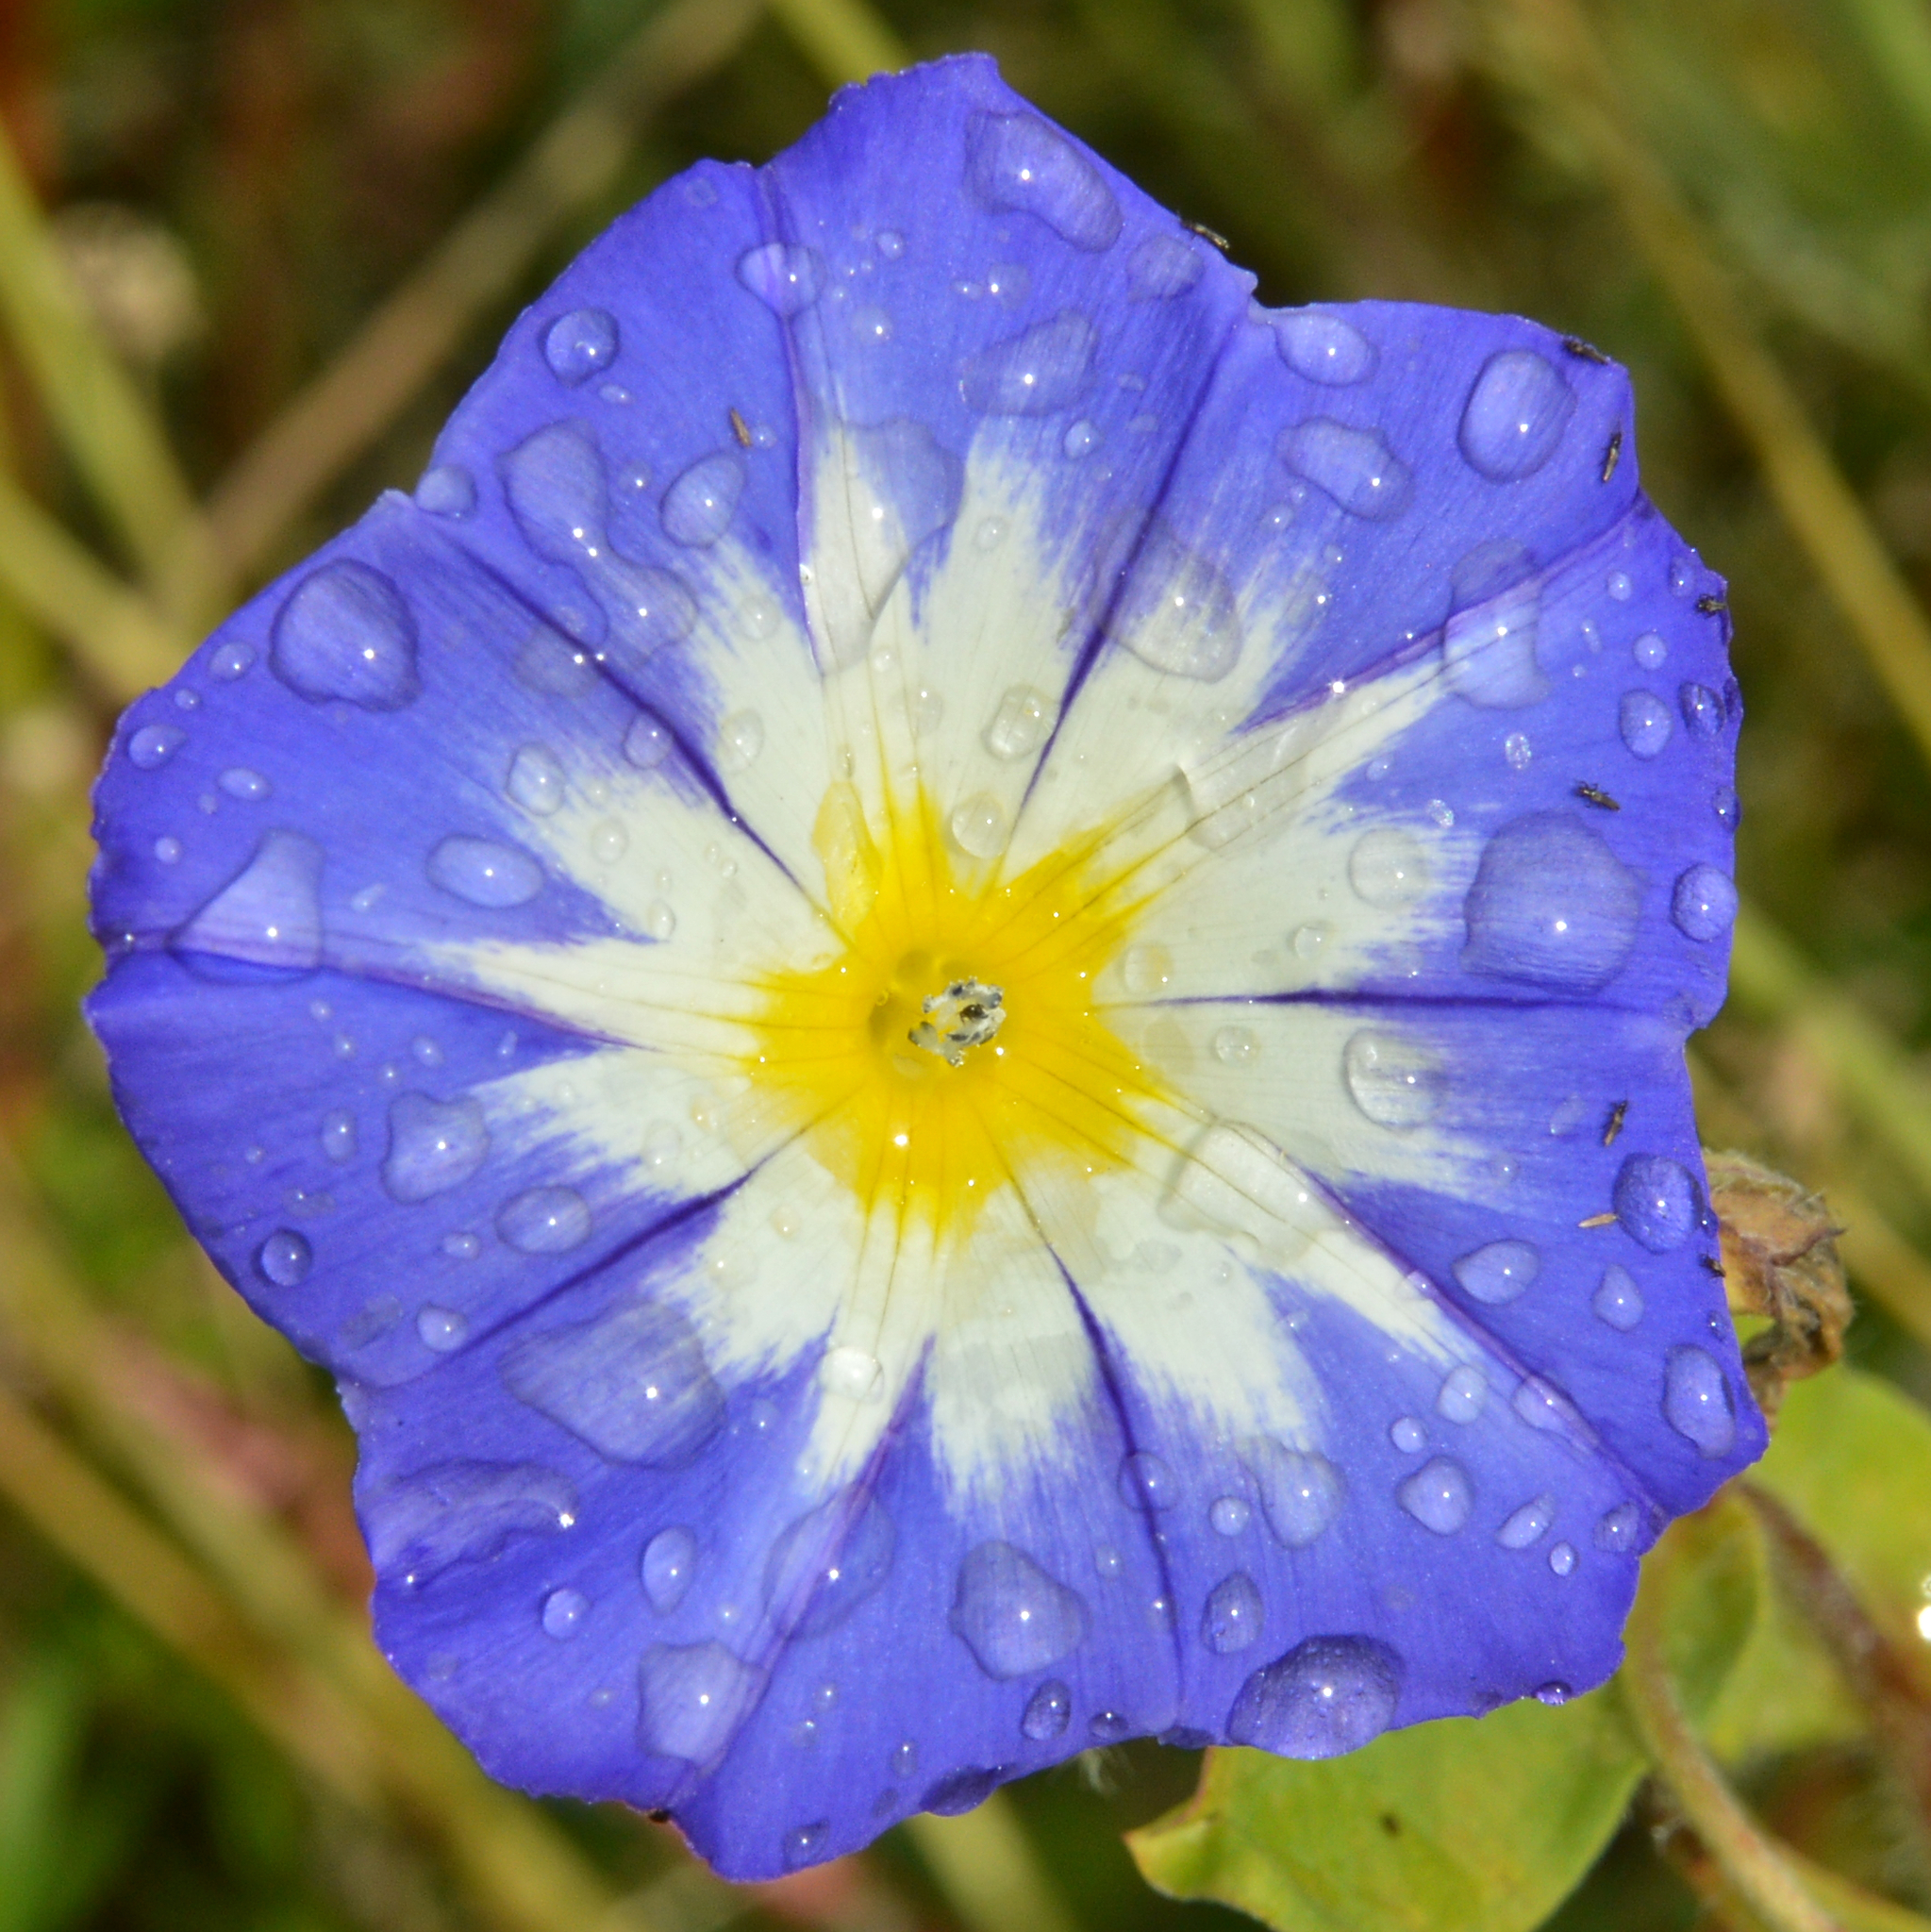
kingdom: Plantae
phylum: Tracheophyta
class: Magnoliopsida
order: Solanales
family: Convolvulaceae
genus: Convolvulus
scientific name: Convolvulus tricolor
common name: Dwarf morning-glory
